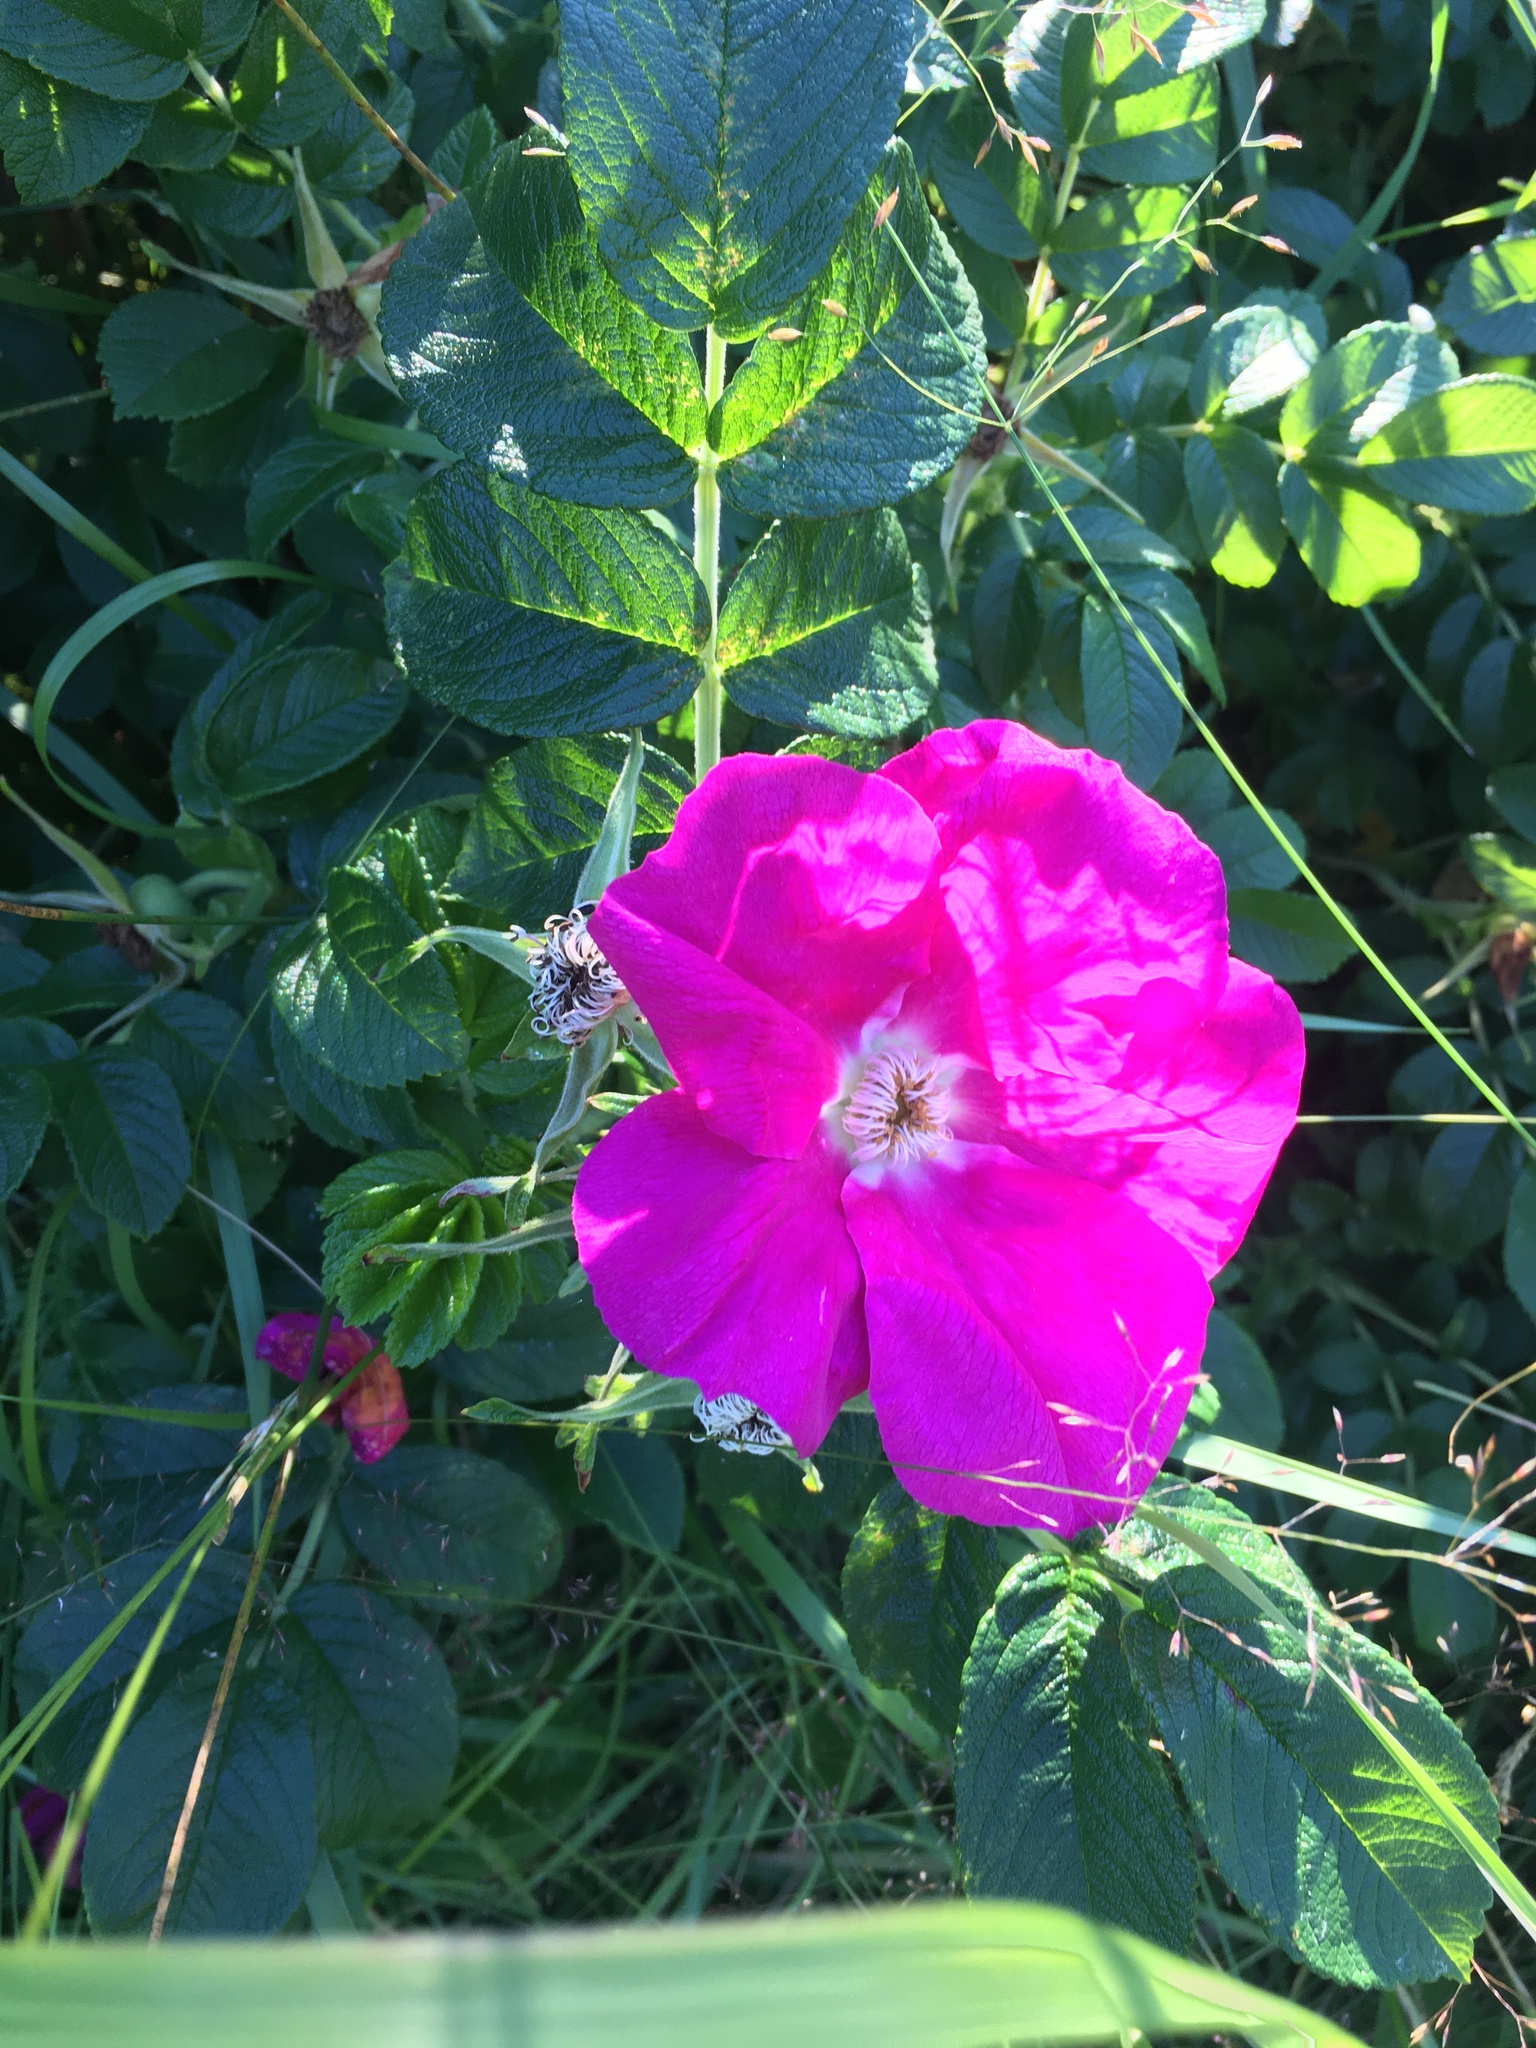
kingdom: Plantae
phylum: Tracheophyta
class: Magnoliopsida
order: Rosales
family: Rosaceae
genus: Rosa
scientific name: Rosa rugosa
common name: Japanese rose
